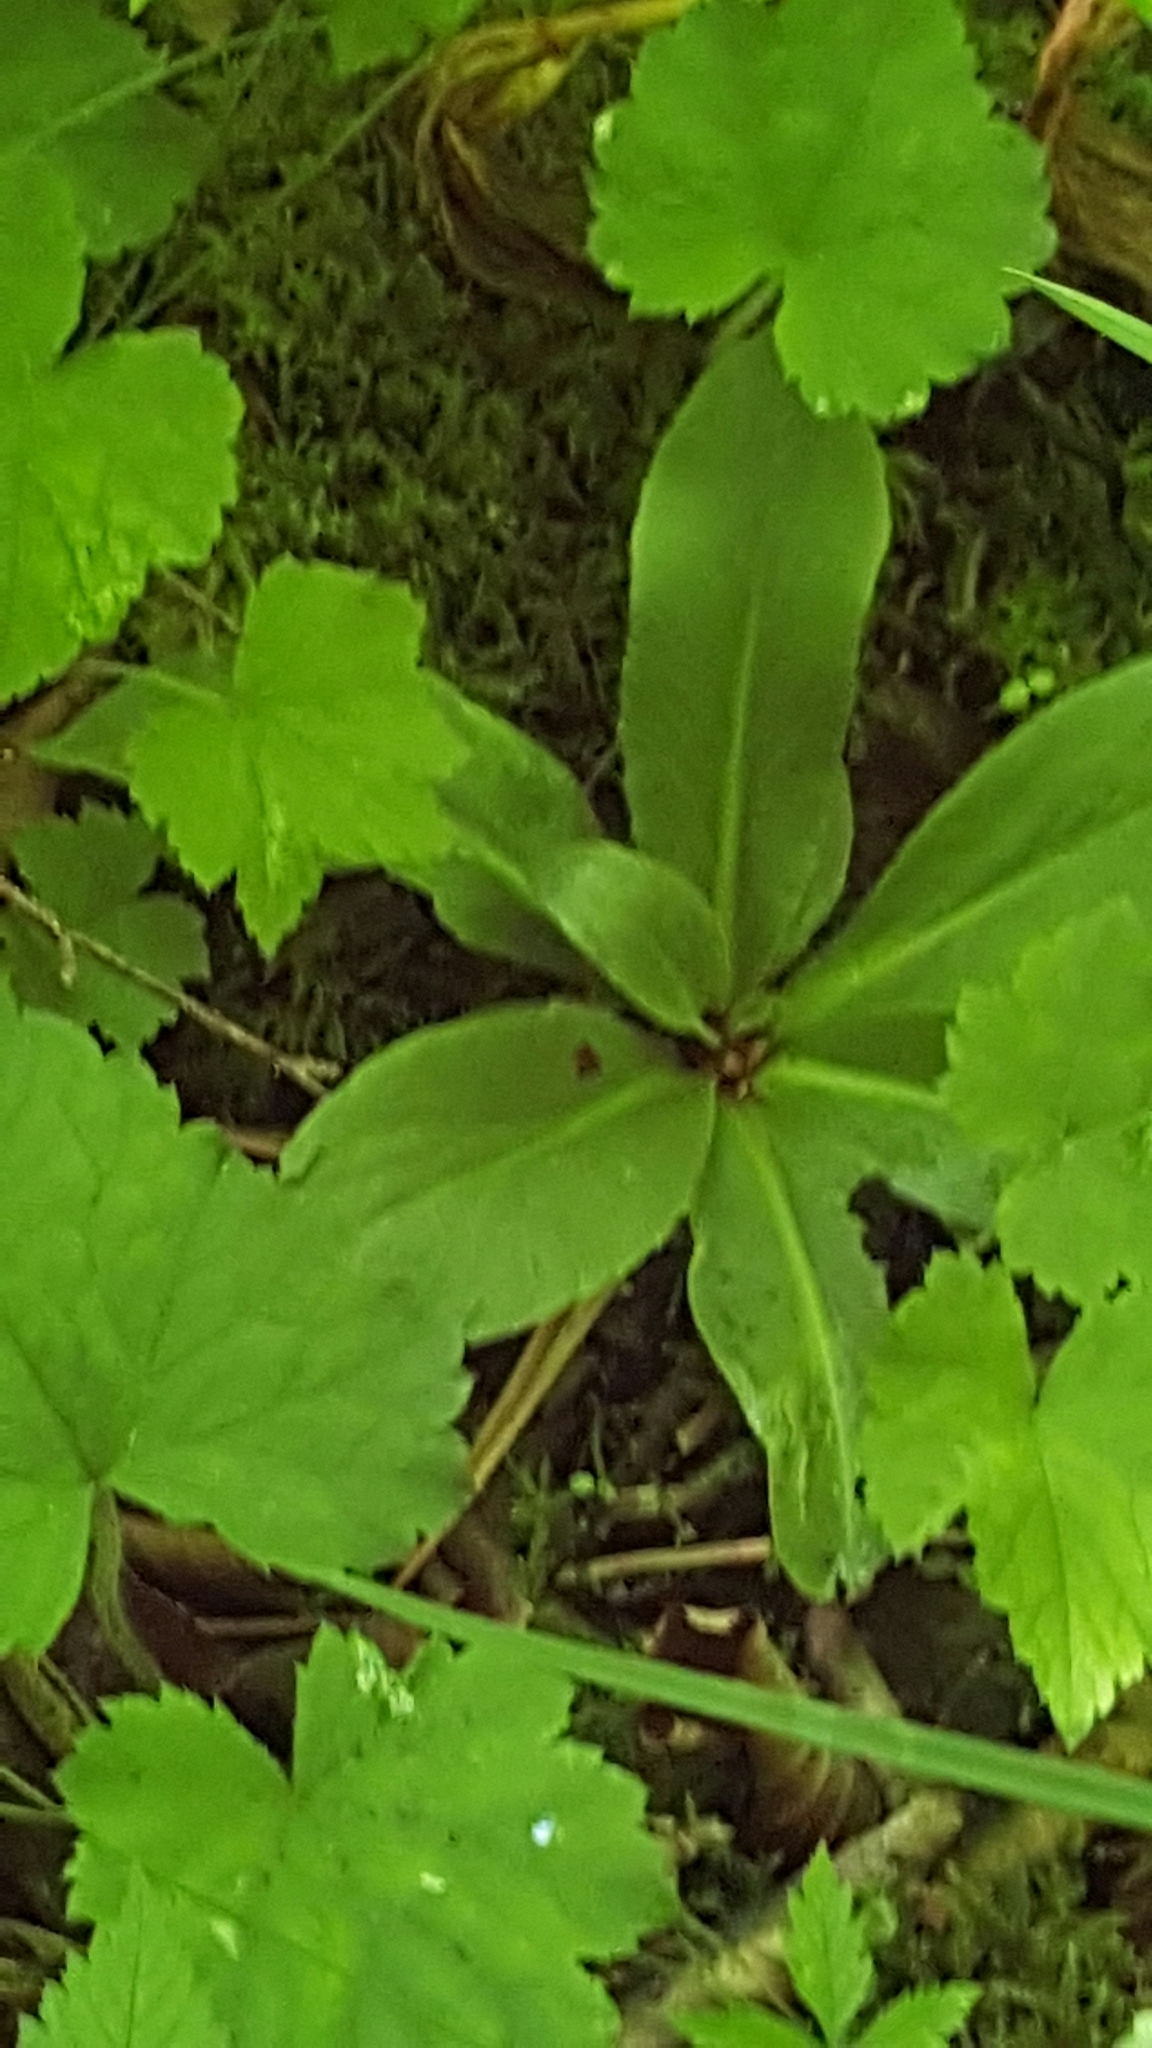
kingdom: Plantae
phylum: Tracheophyta
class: Magnoliopsida
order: Saxifragales
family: Saxifragaceae
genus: Micranthes
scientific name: Micranthes pensylvanica
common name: Marsh saxifrage
